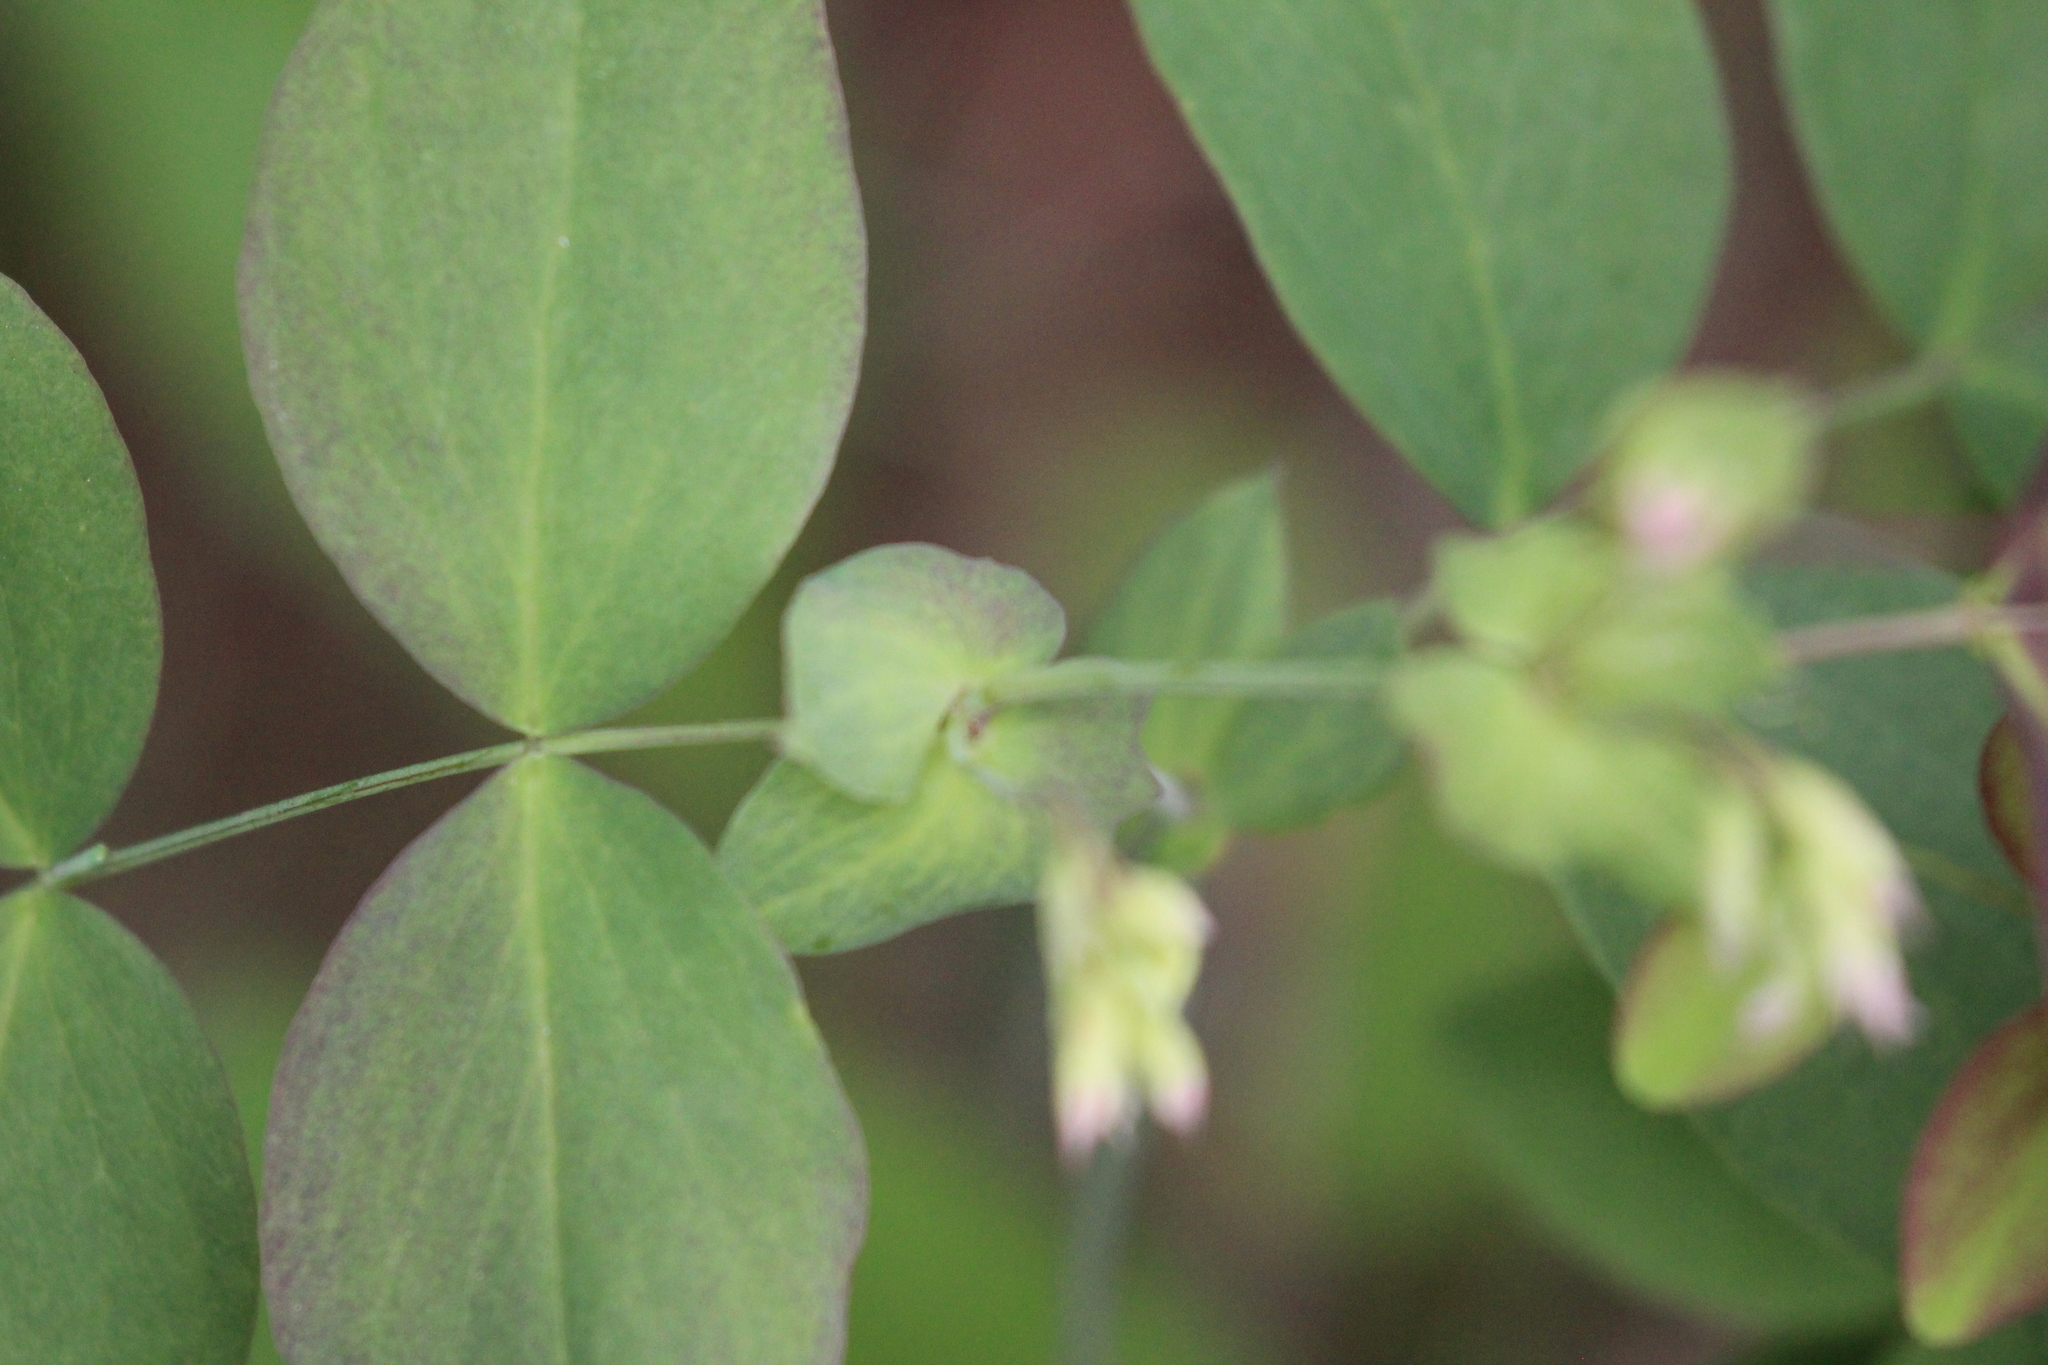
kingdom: Plantae
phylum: Tracheophyta
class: Magnoliopsida
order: Fabales
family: Fabaceae
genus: Lathyrus
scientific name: Lathyrus ochroleucus
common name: Pale vetchling
